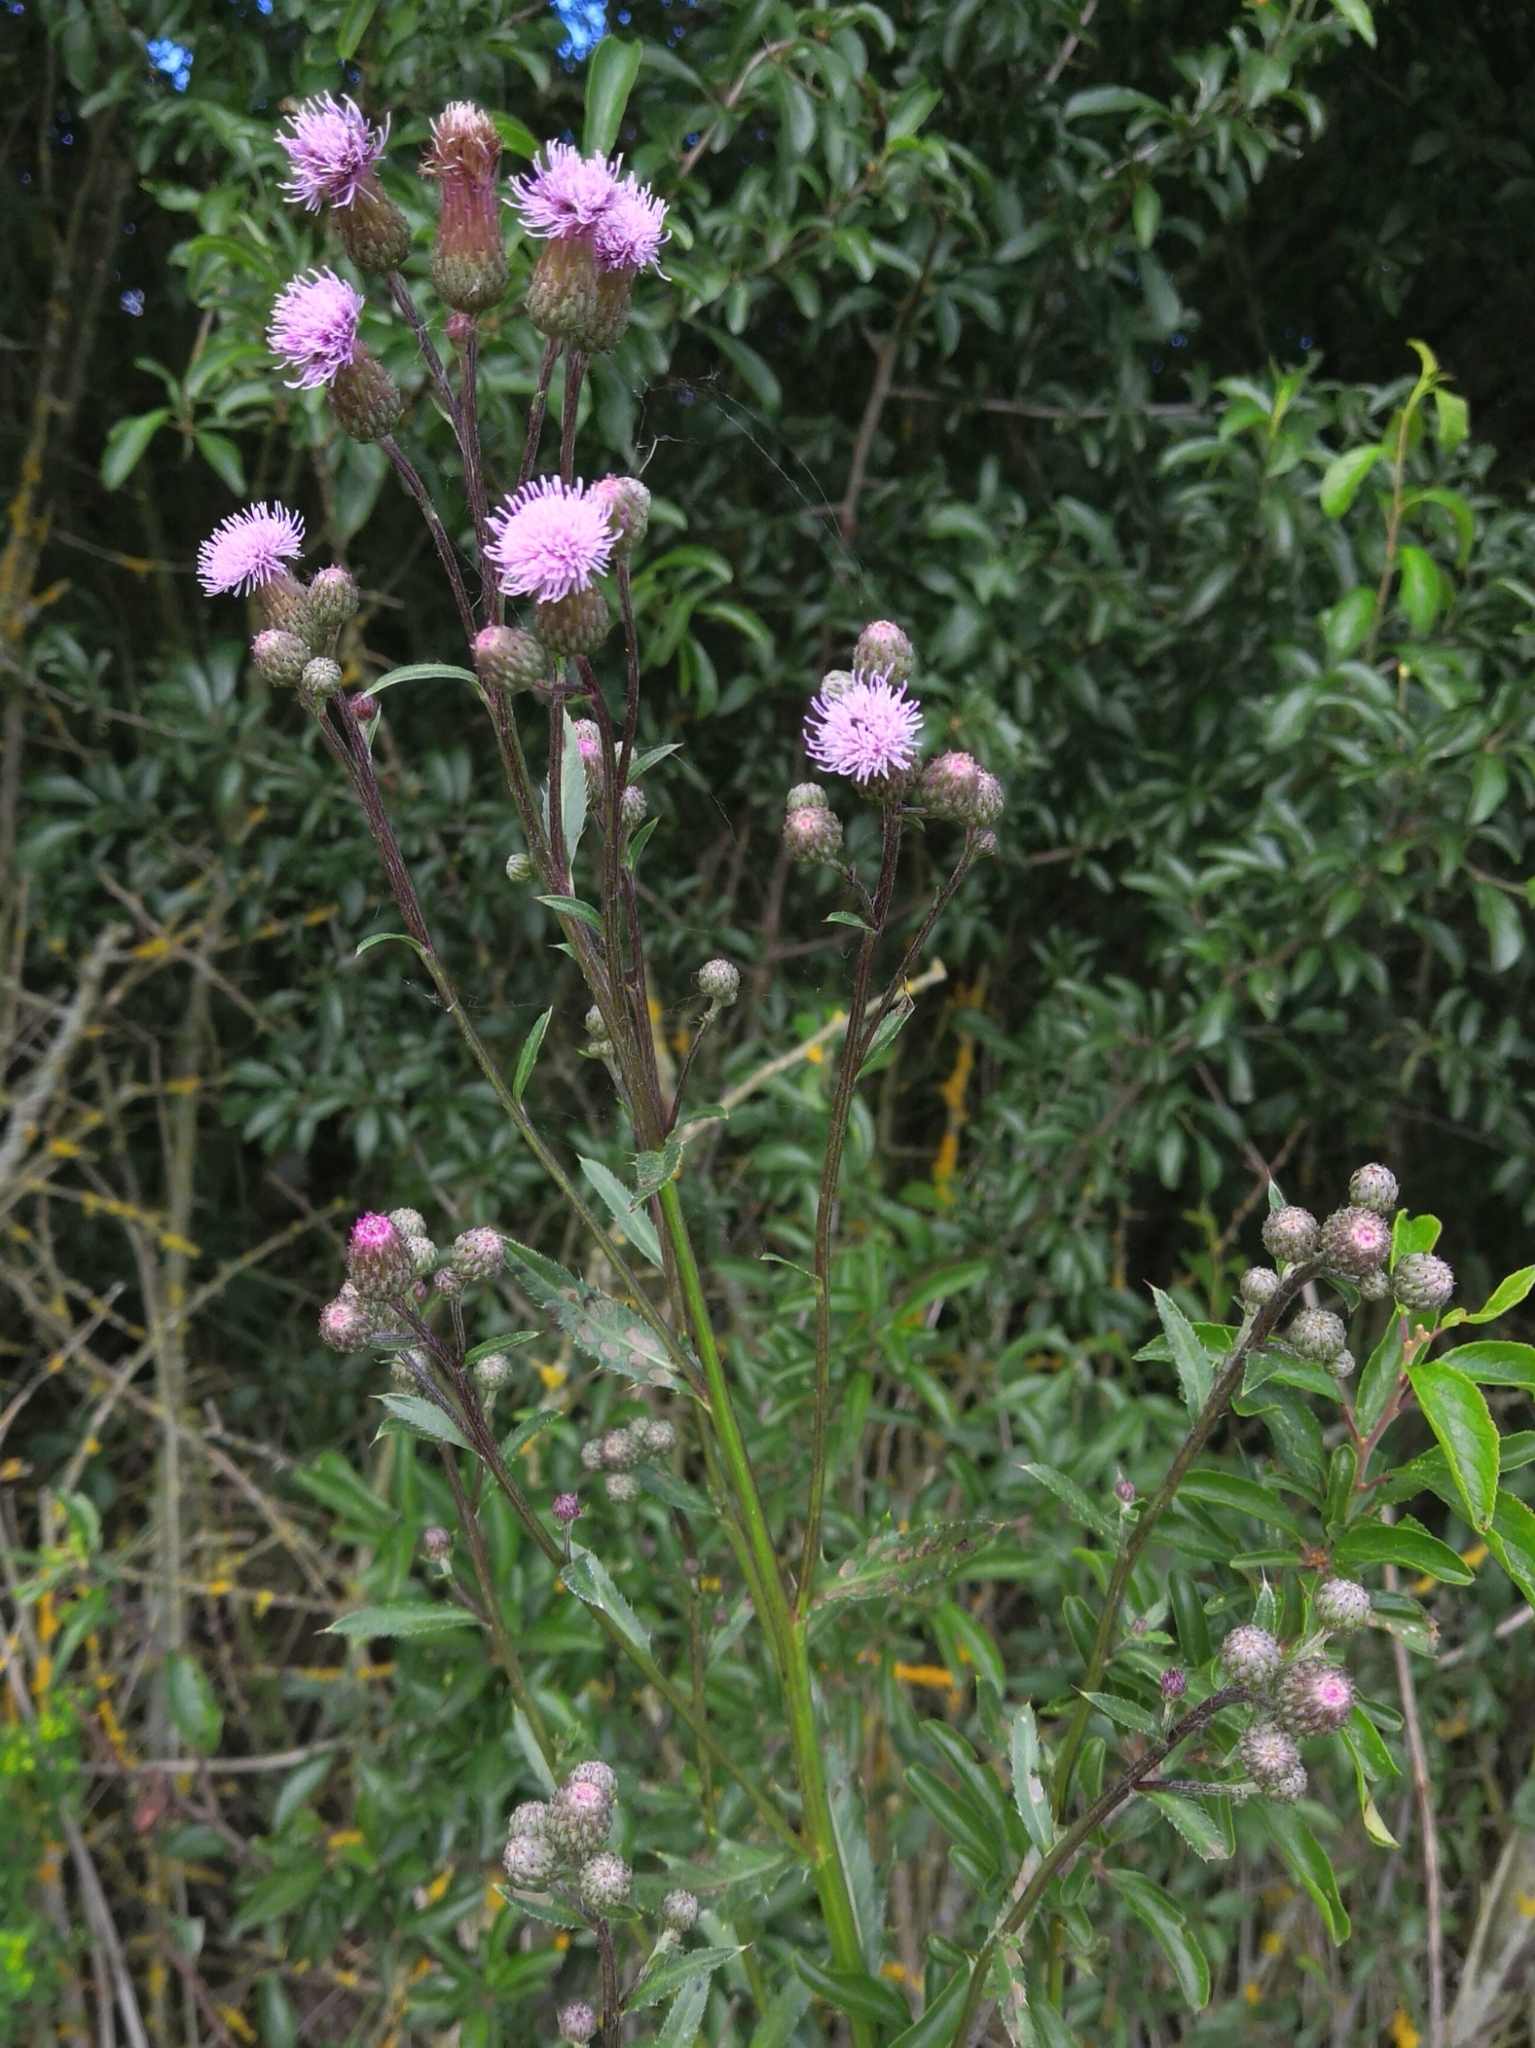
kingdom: Plantae
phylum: Tracheophyta
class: Magnoliopsida
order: Asterales
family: Asteraceae
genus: Cirsium
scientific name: Cirsium arvense
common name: Creeping thistle
